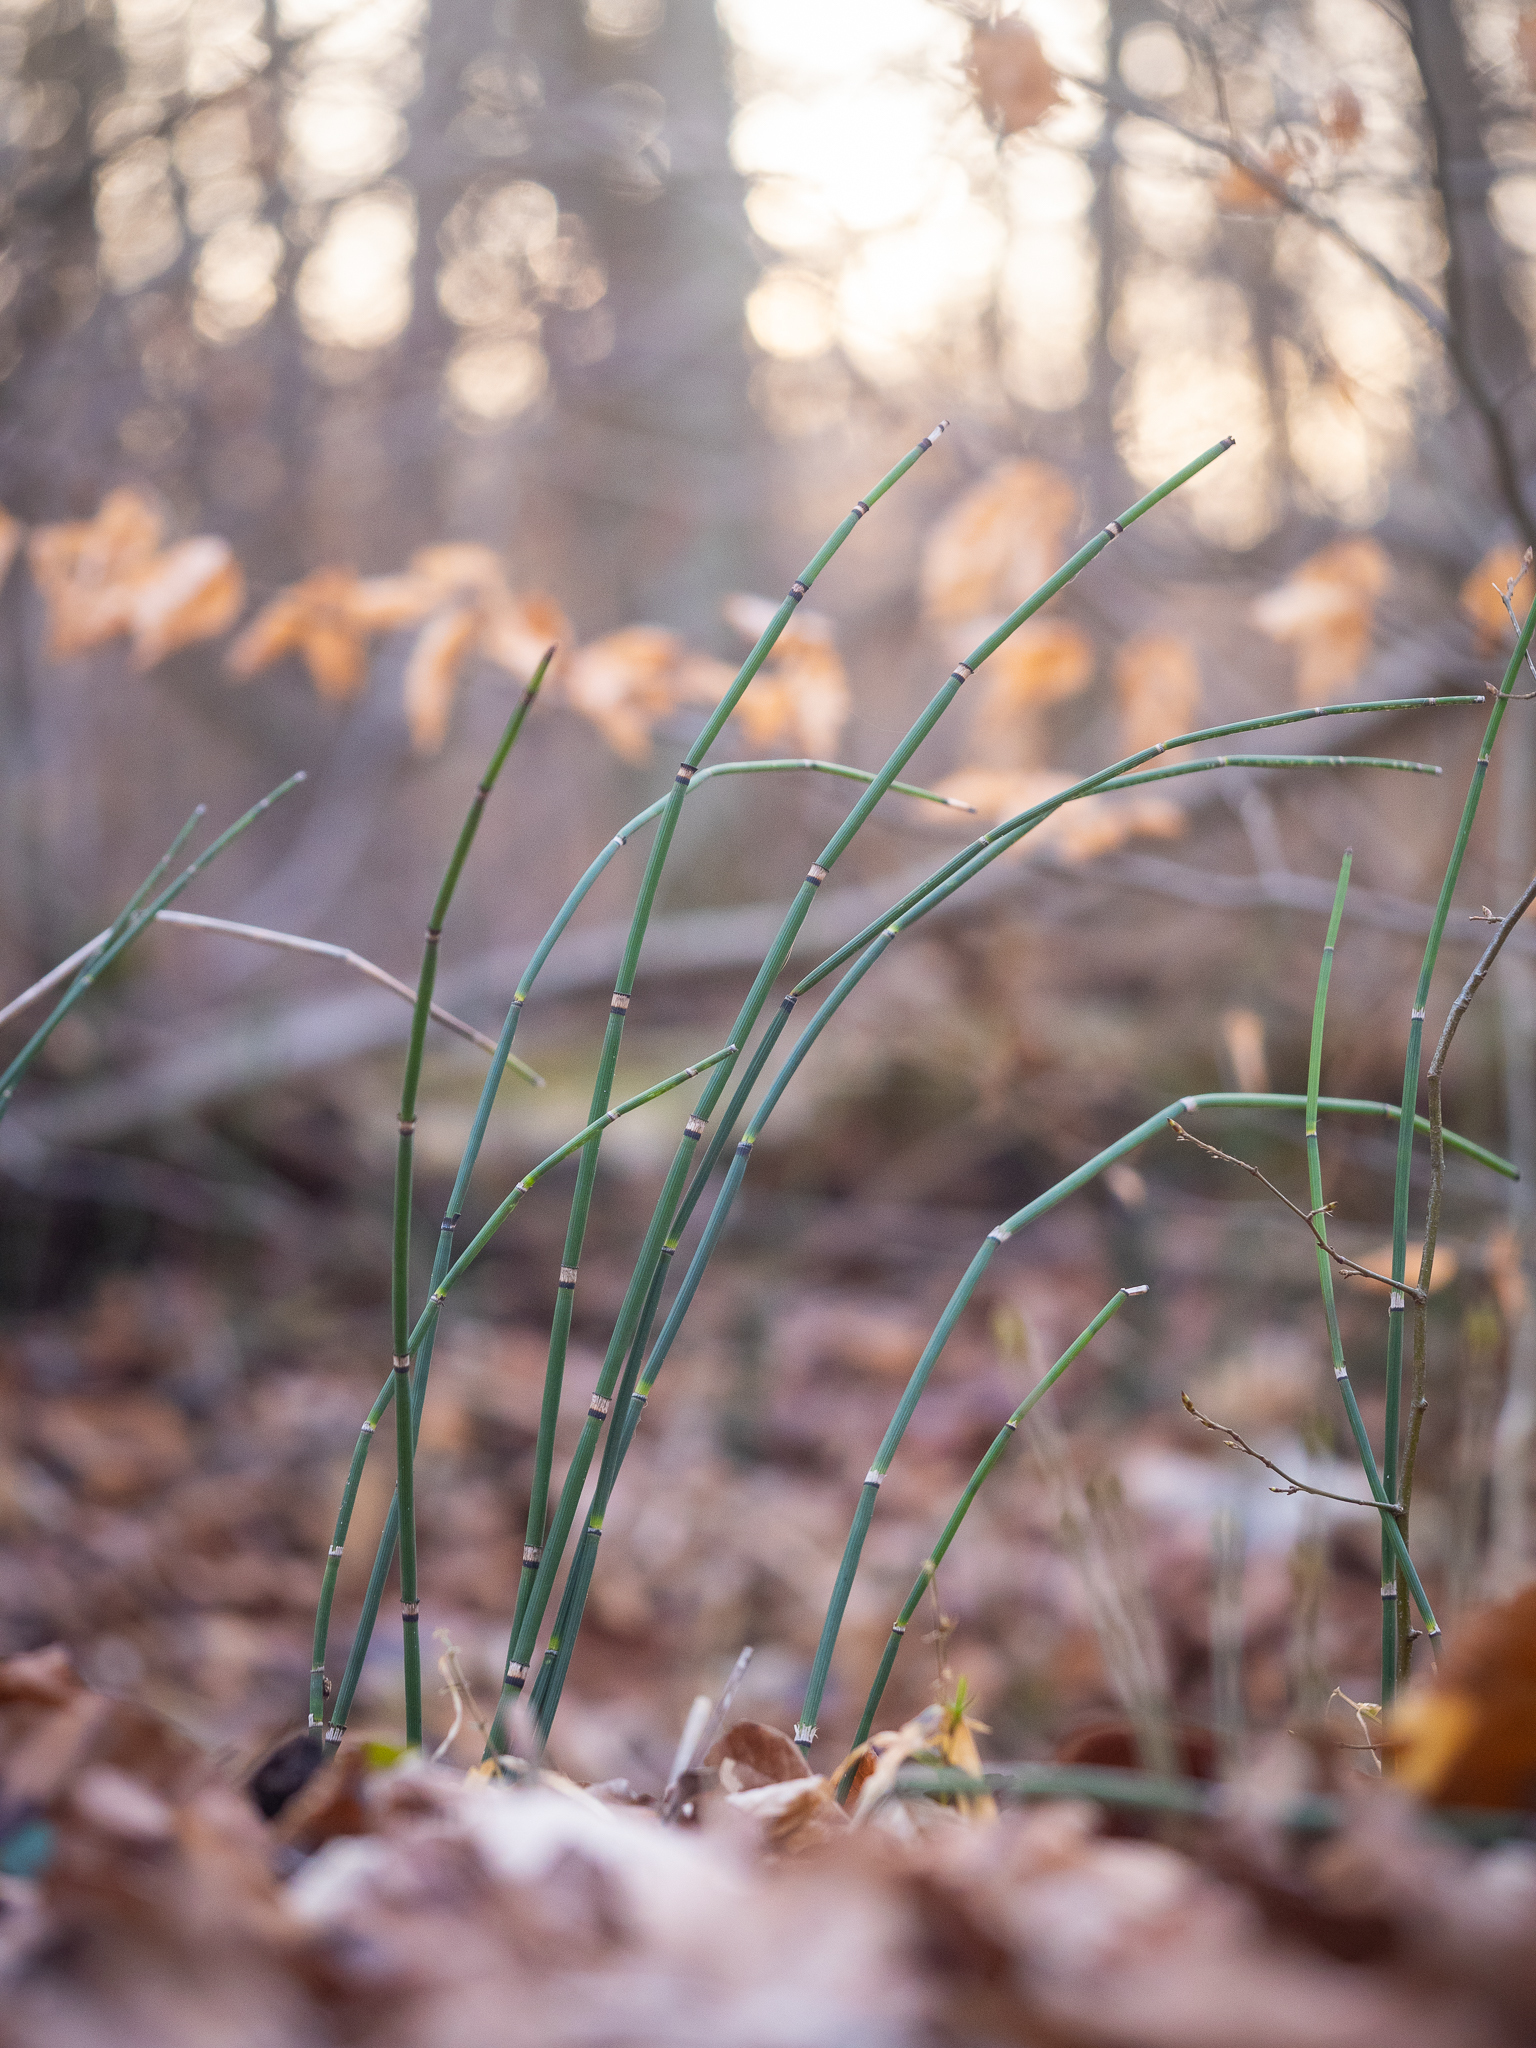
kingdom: Plantae
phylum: Tracheophyta
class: Polypodiopsida
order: Equisetales
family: Equisetaceae
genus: Equisetum
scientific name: Equisetum hyemale
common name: Rough horsetail
